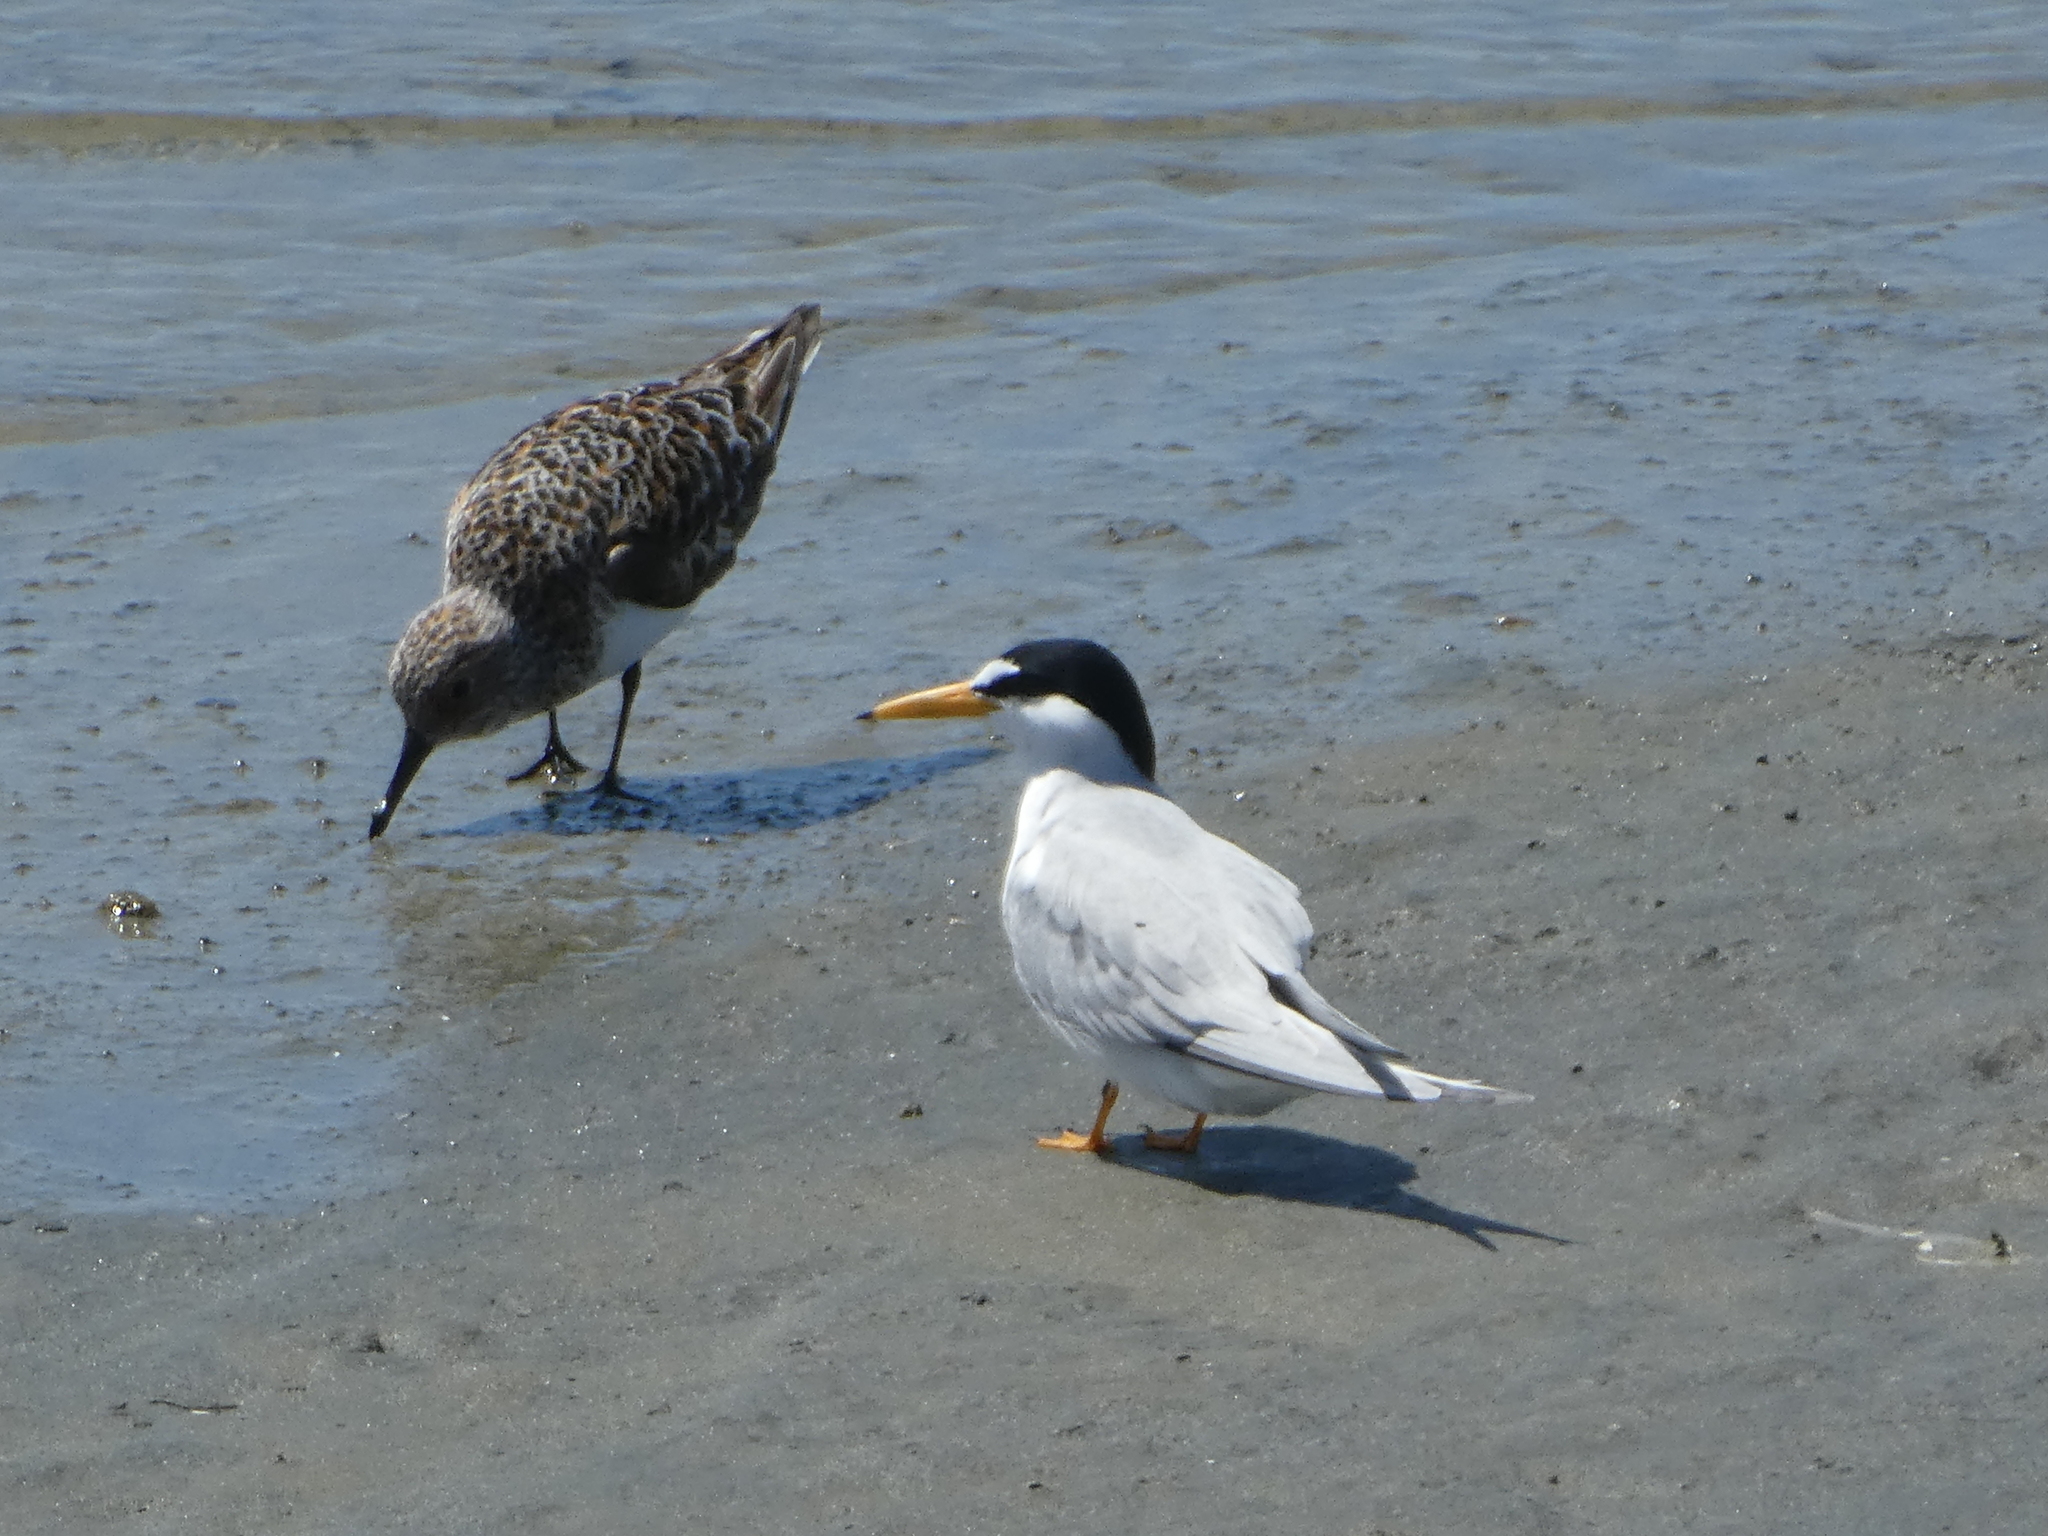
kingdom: Animalia
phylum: Chordata
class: Aves
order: Charadriiformes
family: Laridae
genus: Sternula
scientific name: Sternula antillarum
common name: Least tern
